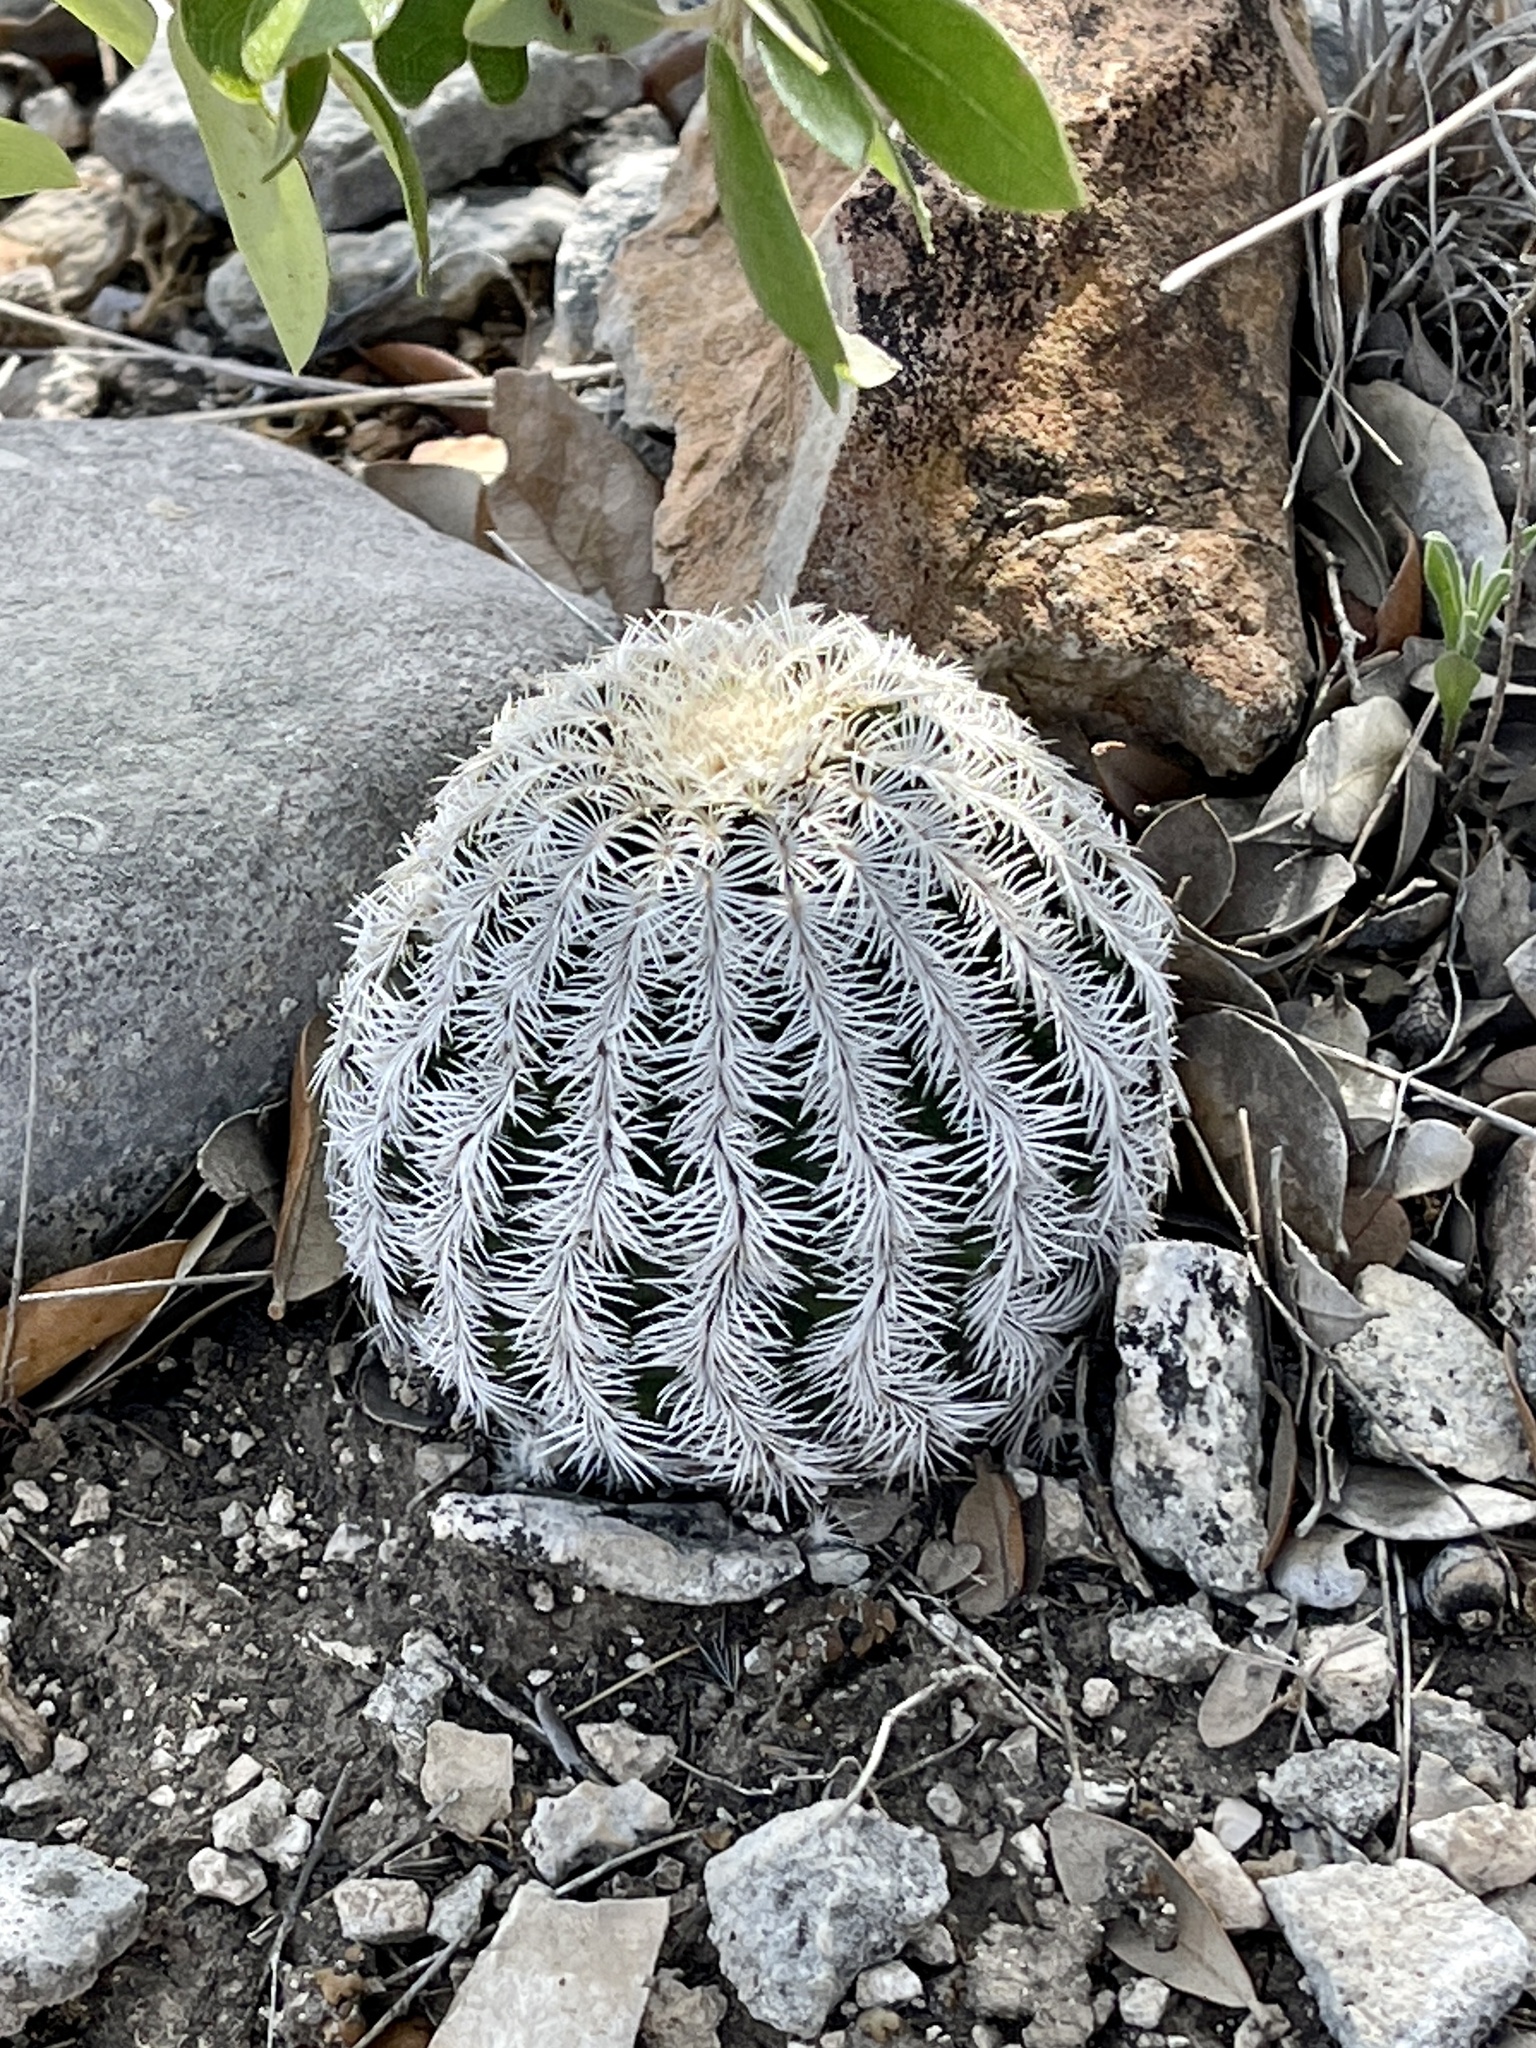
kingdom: Plantae
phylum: Tracheophyta
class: Magnoliopsida
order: Caryophyllales
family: Cactaceae
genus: Echinocereus
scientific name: Echinocereus reichenbachii
